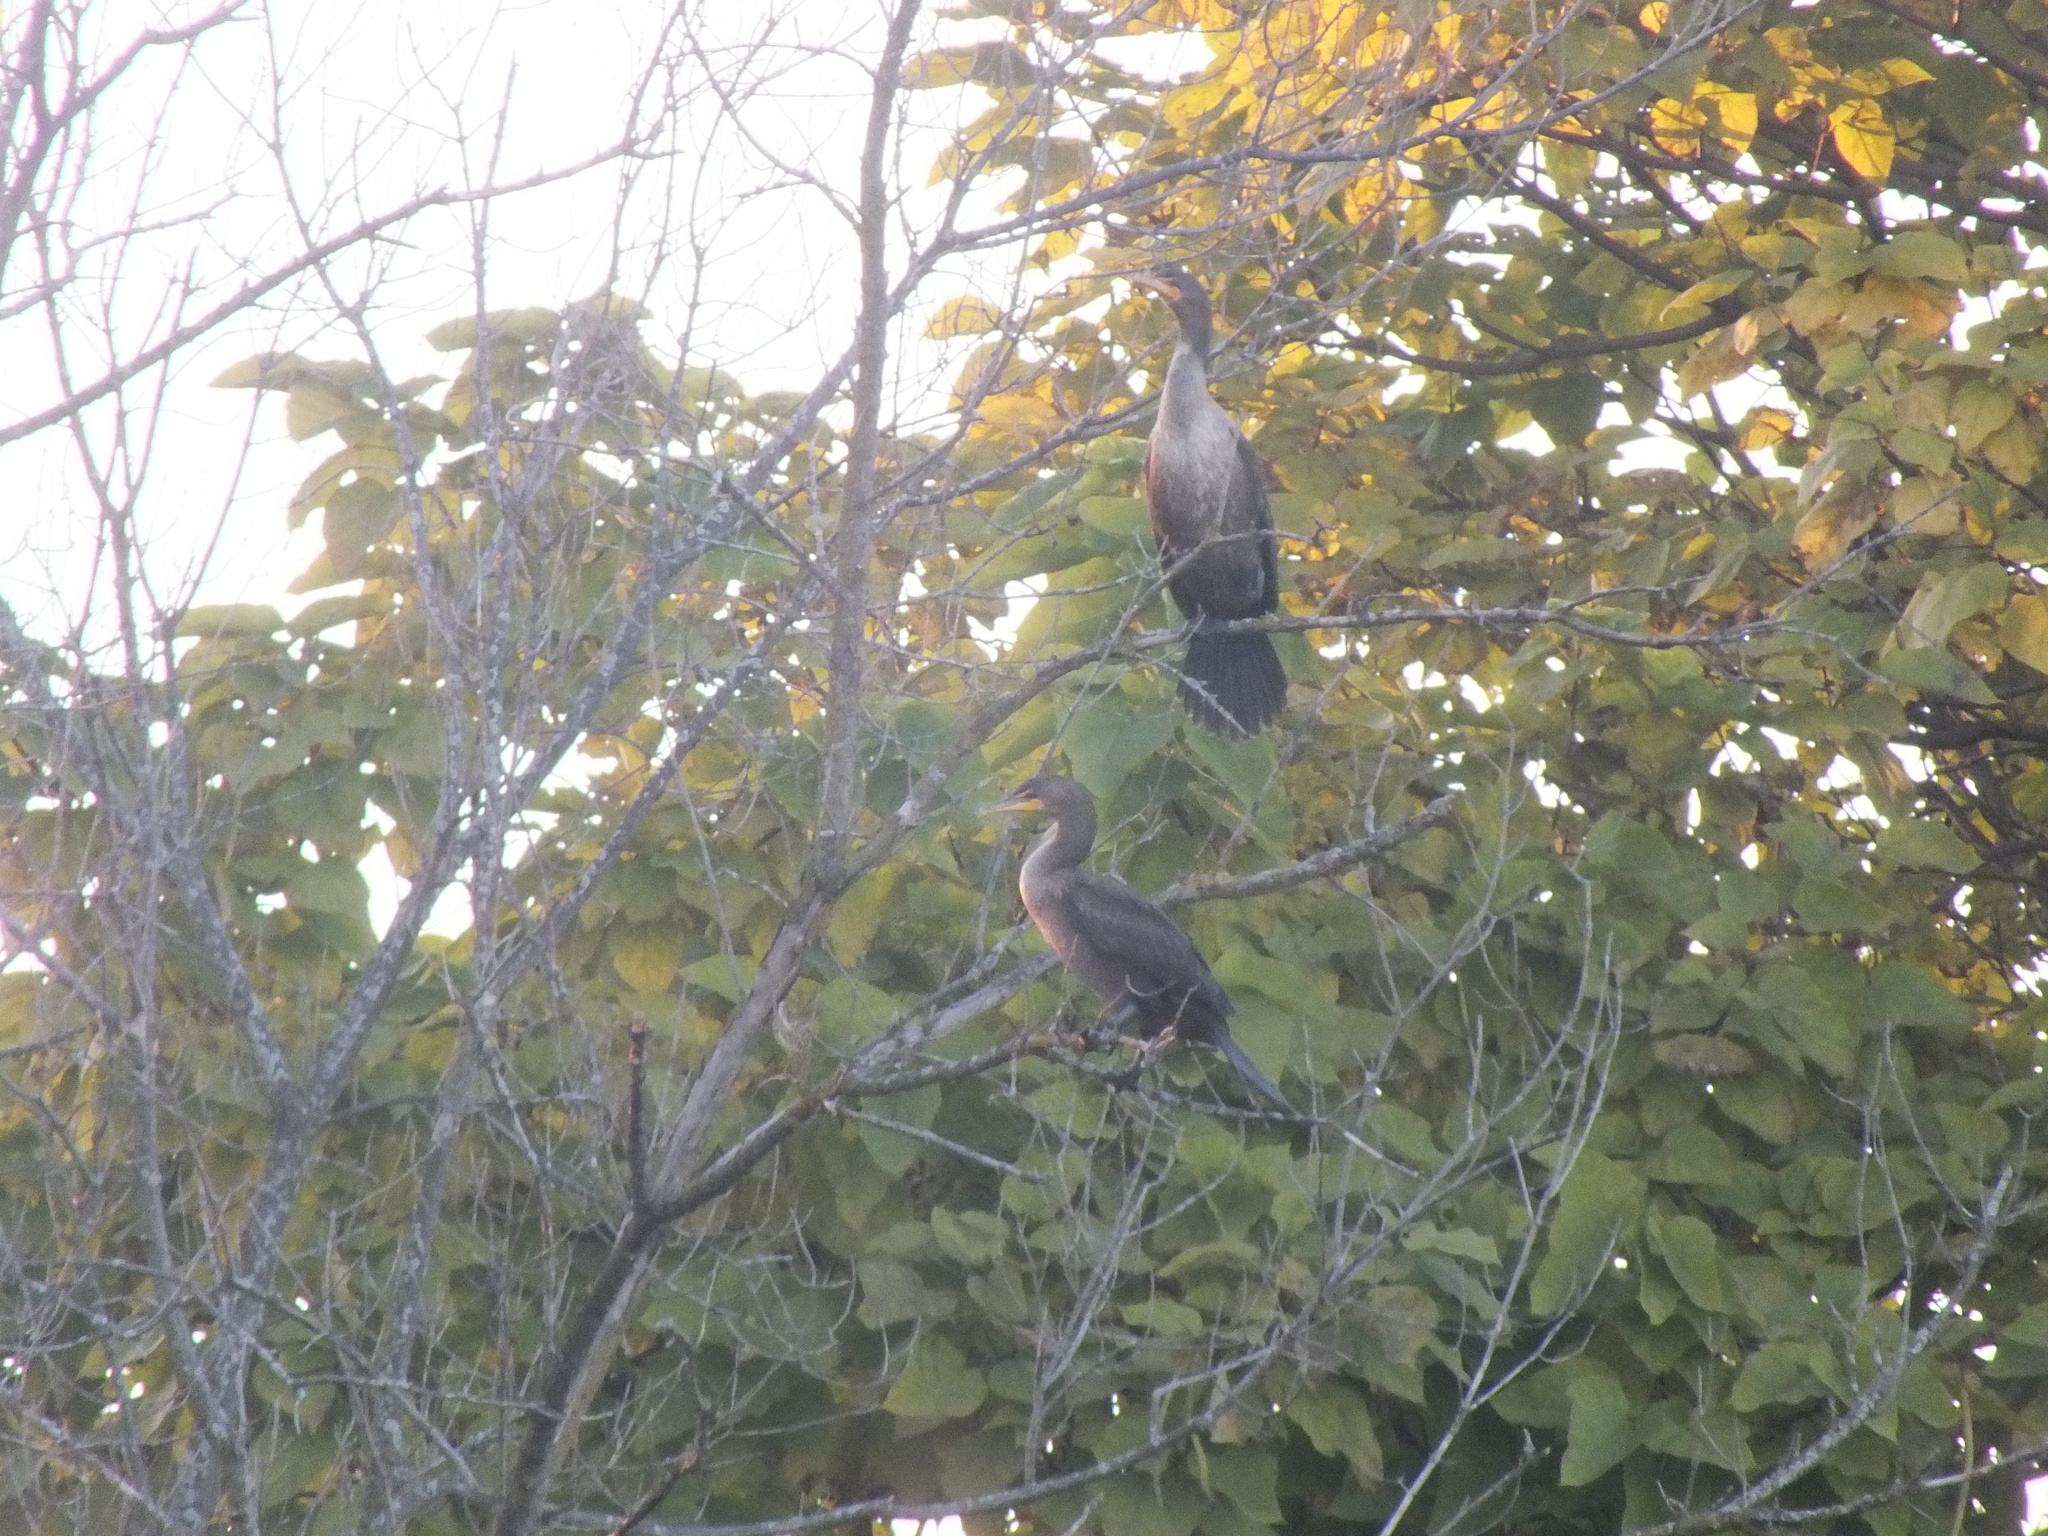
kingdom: Animalia
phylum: Chordata
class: Aves
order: Suliformes
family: Phalacrocoracidae
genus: Phalacrocorax
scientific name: Phalacrocorax auritus
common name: Double-crested cormorant
